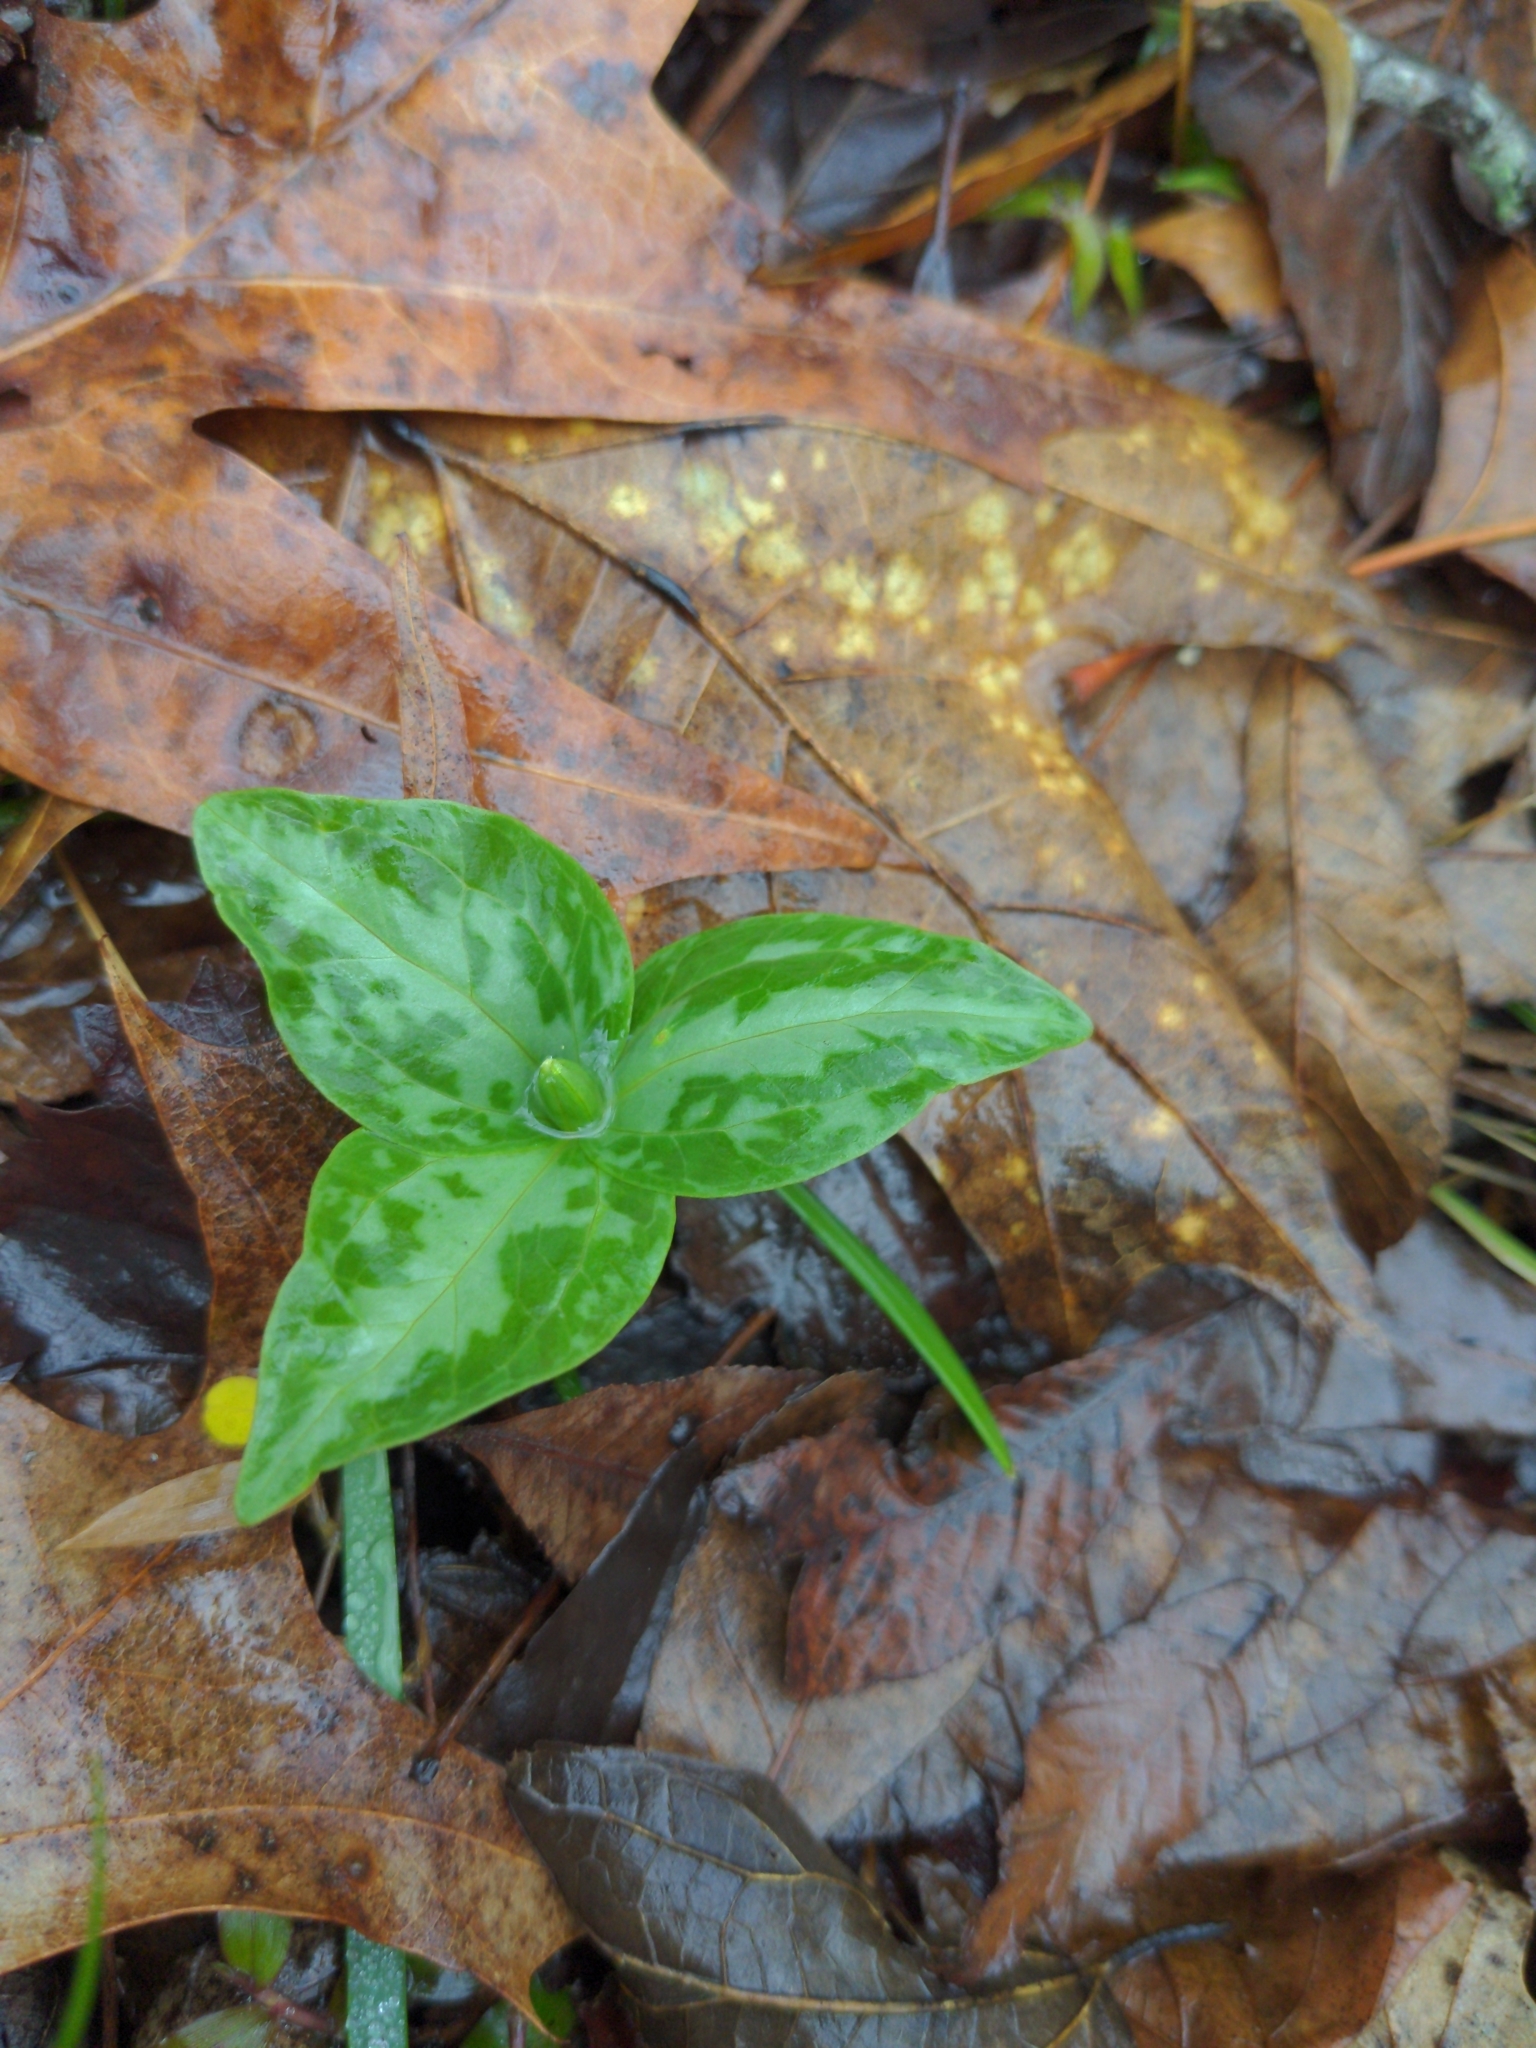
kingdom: Plantae
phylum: Tracheophyta
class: Liliopsida
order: Liliales
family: Melanthiaceae
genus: Trillium
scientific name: Trillium foetidissimum
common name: Mississippi river trillium
